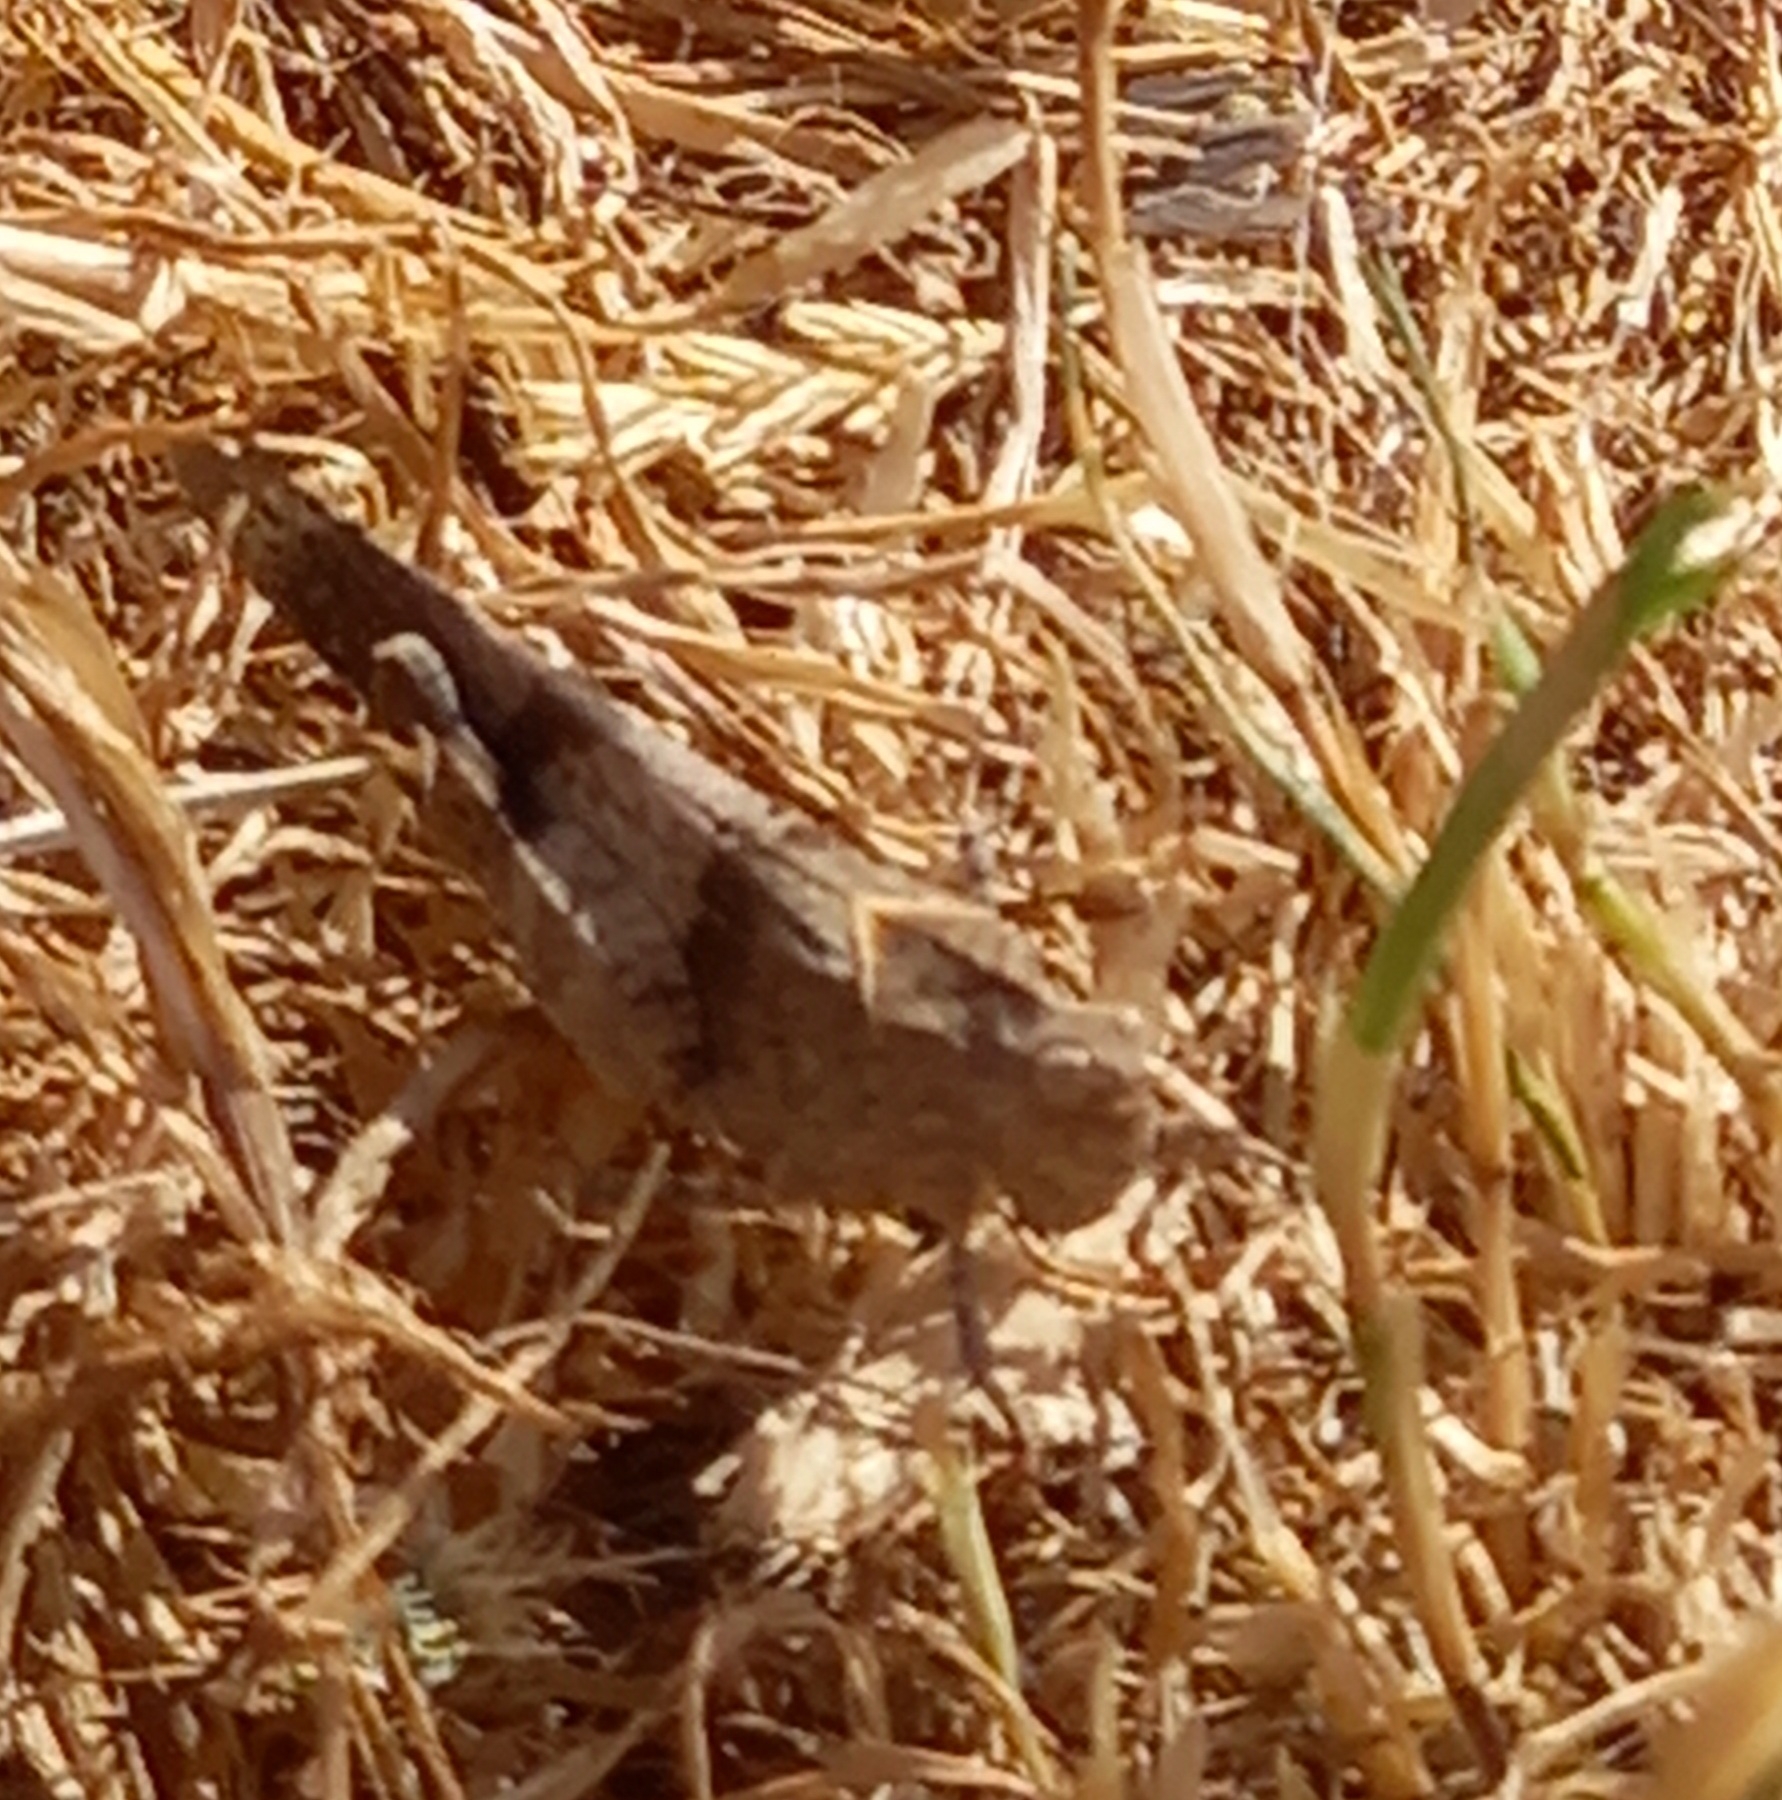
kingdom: Animalia
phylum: Arthropoda
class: Insecta
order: Orthoptera
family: Acrididae
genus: Oedipoda
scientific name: Oedipoda caerulescens
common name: Blue-winged grasshopper
